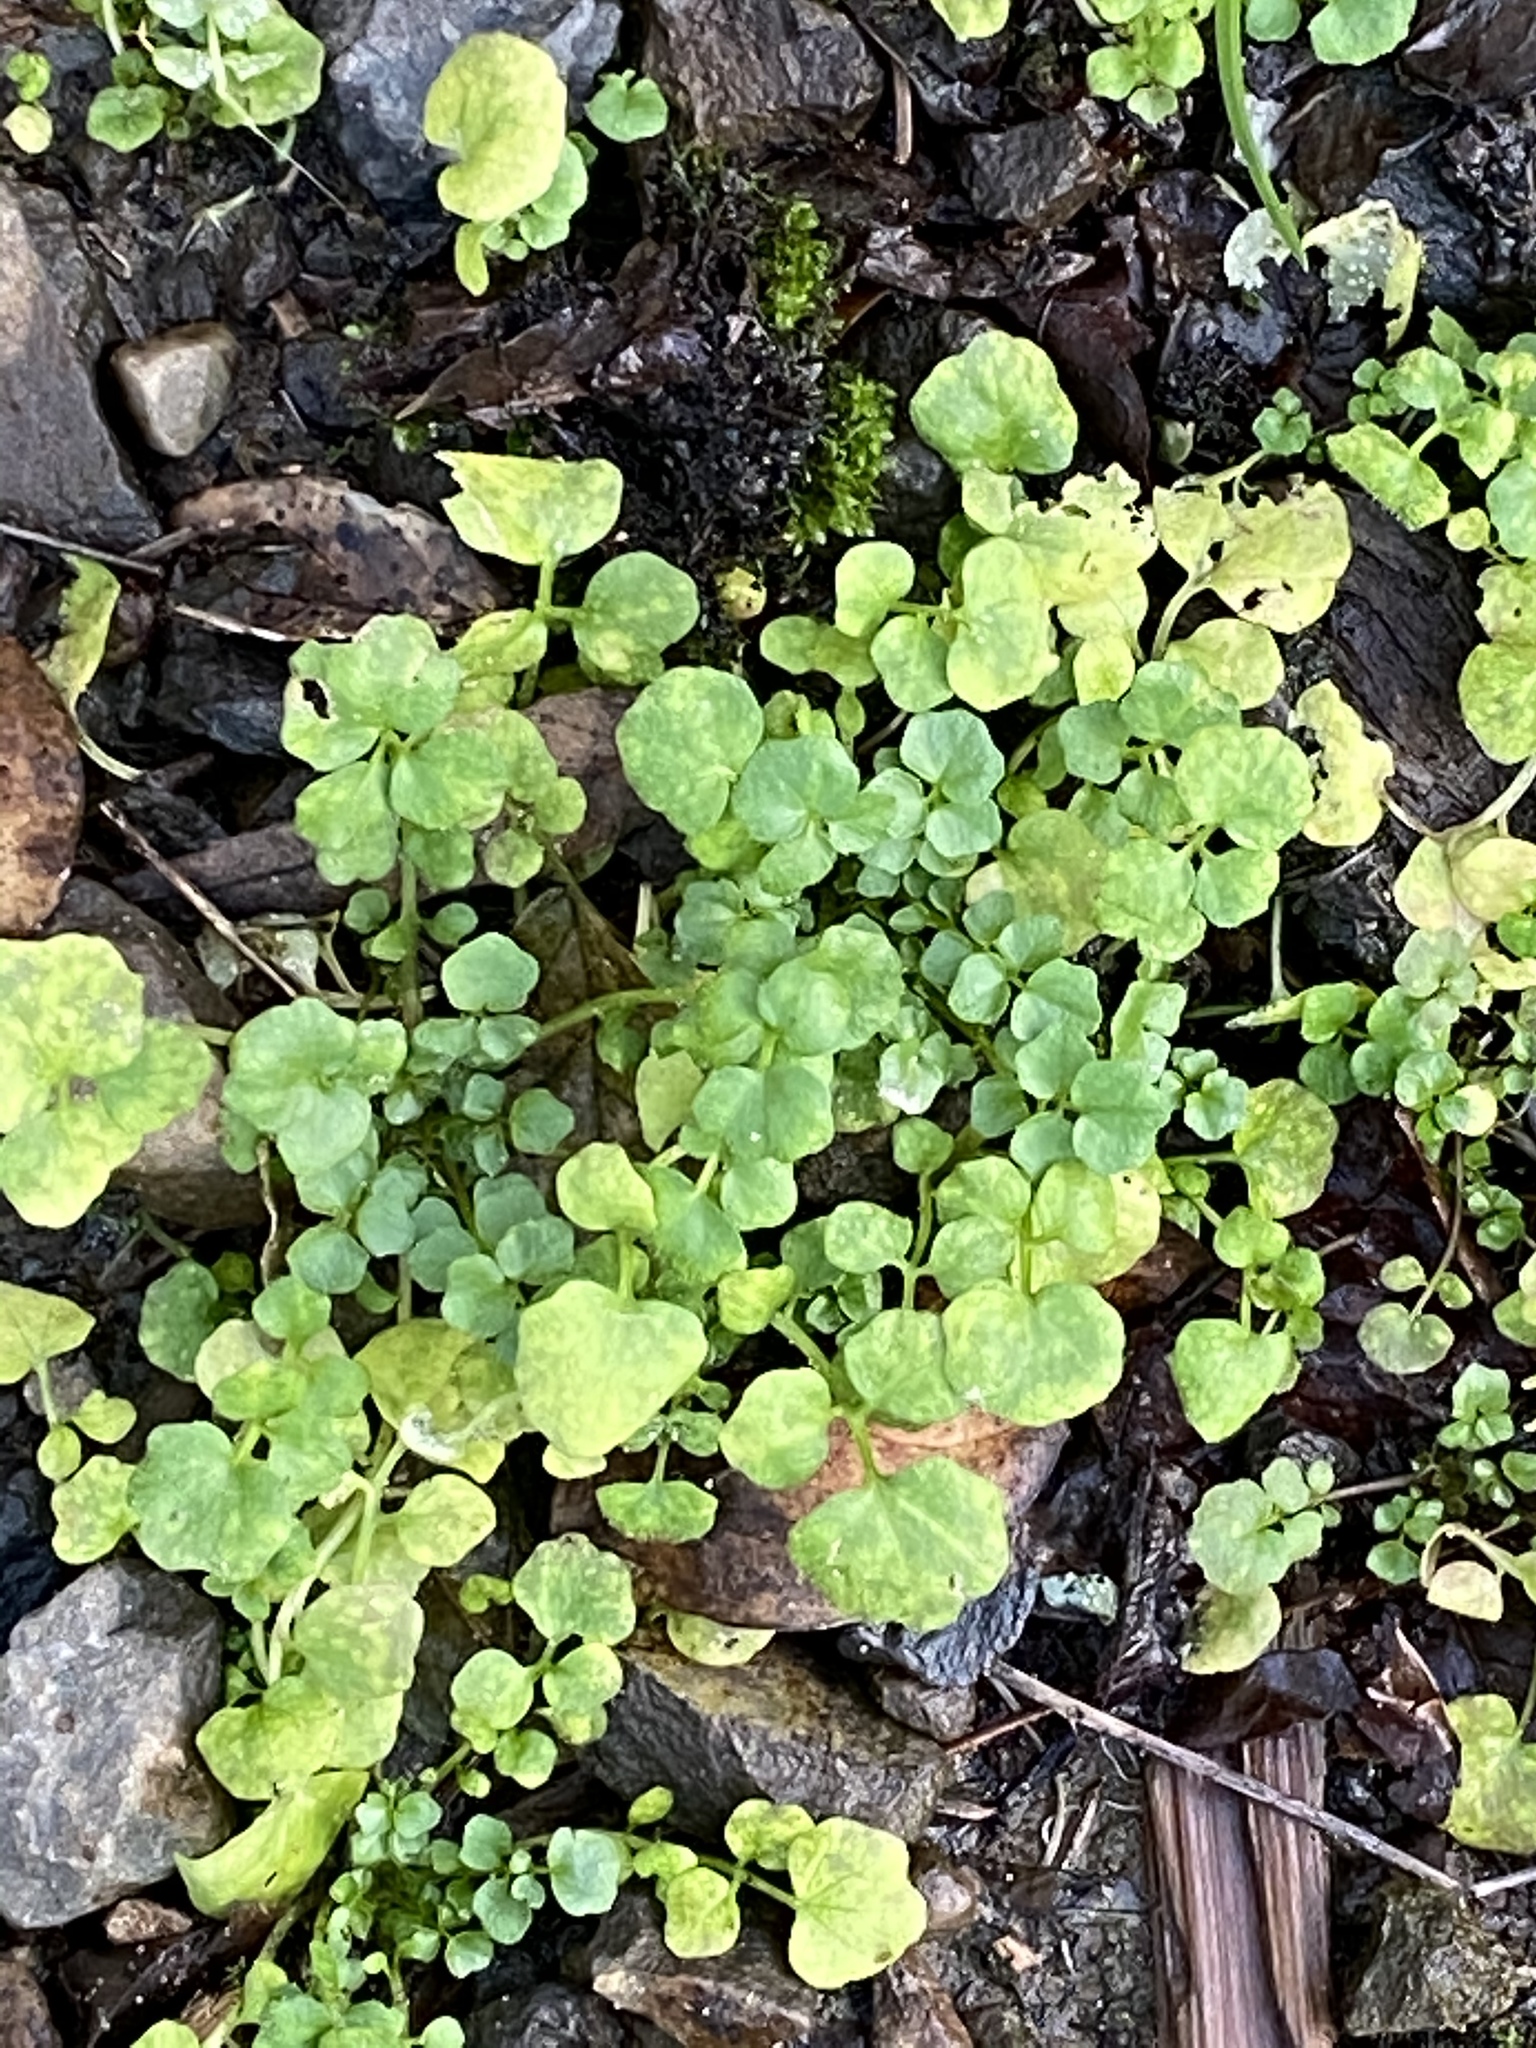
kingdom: Plantae
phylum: Tracheophyta
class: Magnoliopsida
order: Brassicales
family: Brassicaceae
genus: Cardamine
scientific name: Cardamine hirsuta
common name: Hairy bittercress
